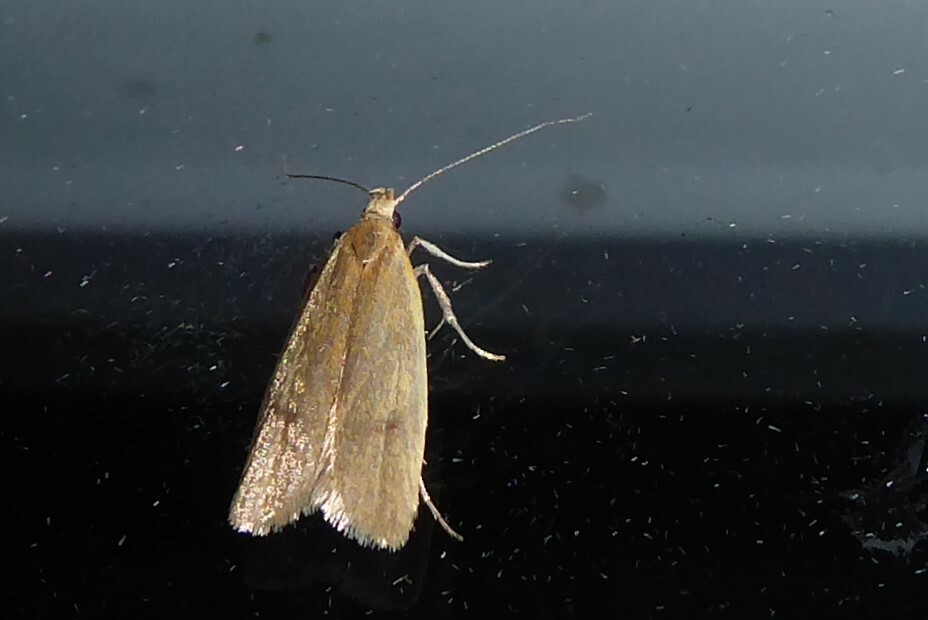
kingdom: Animalia
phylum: Arthropoda
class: Insecta
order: Lepidoptera
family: Oecophoridae
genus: Gymnobathra
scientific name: Gymnobathra parca
